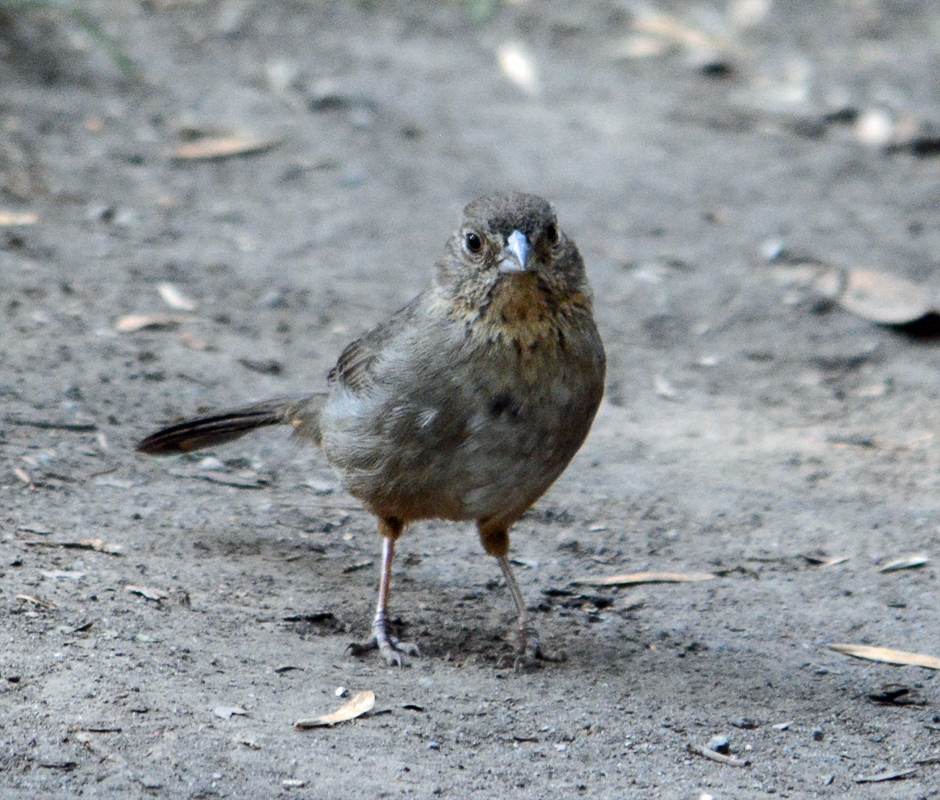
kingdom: Animalia
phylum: Chordata
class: Aves
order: Passeriformes
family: Passerellidae
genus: Melozone
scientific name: Melozone fusca
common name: Canyon towhee
